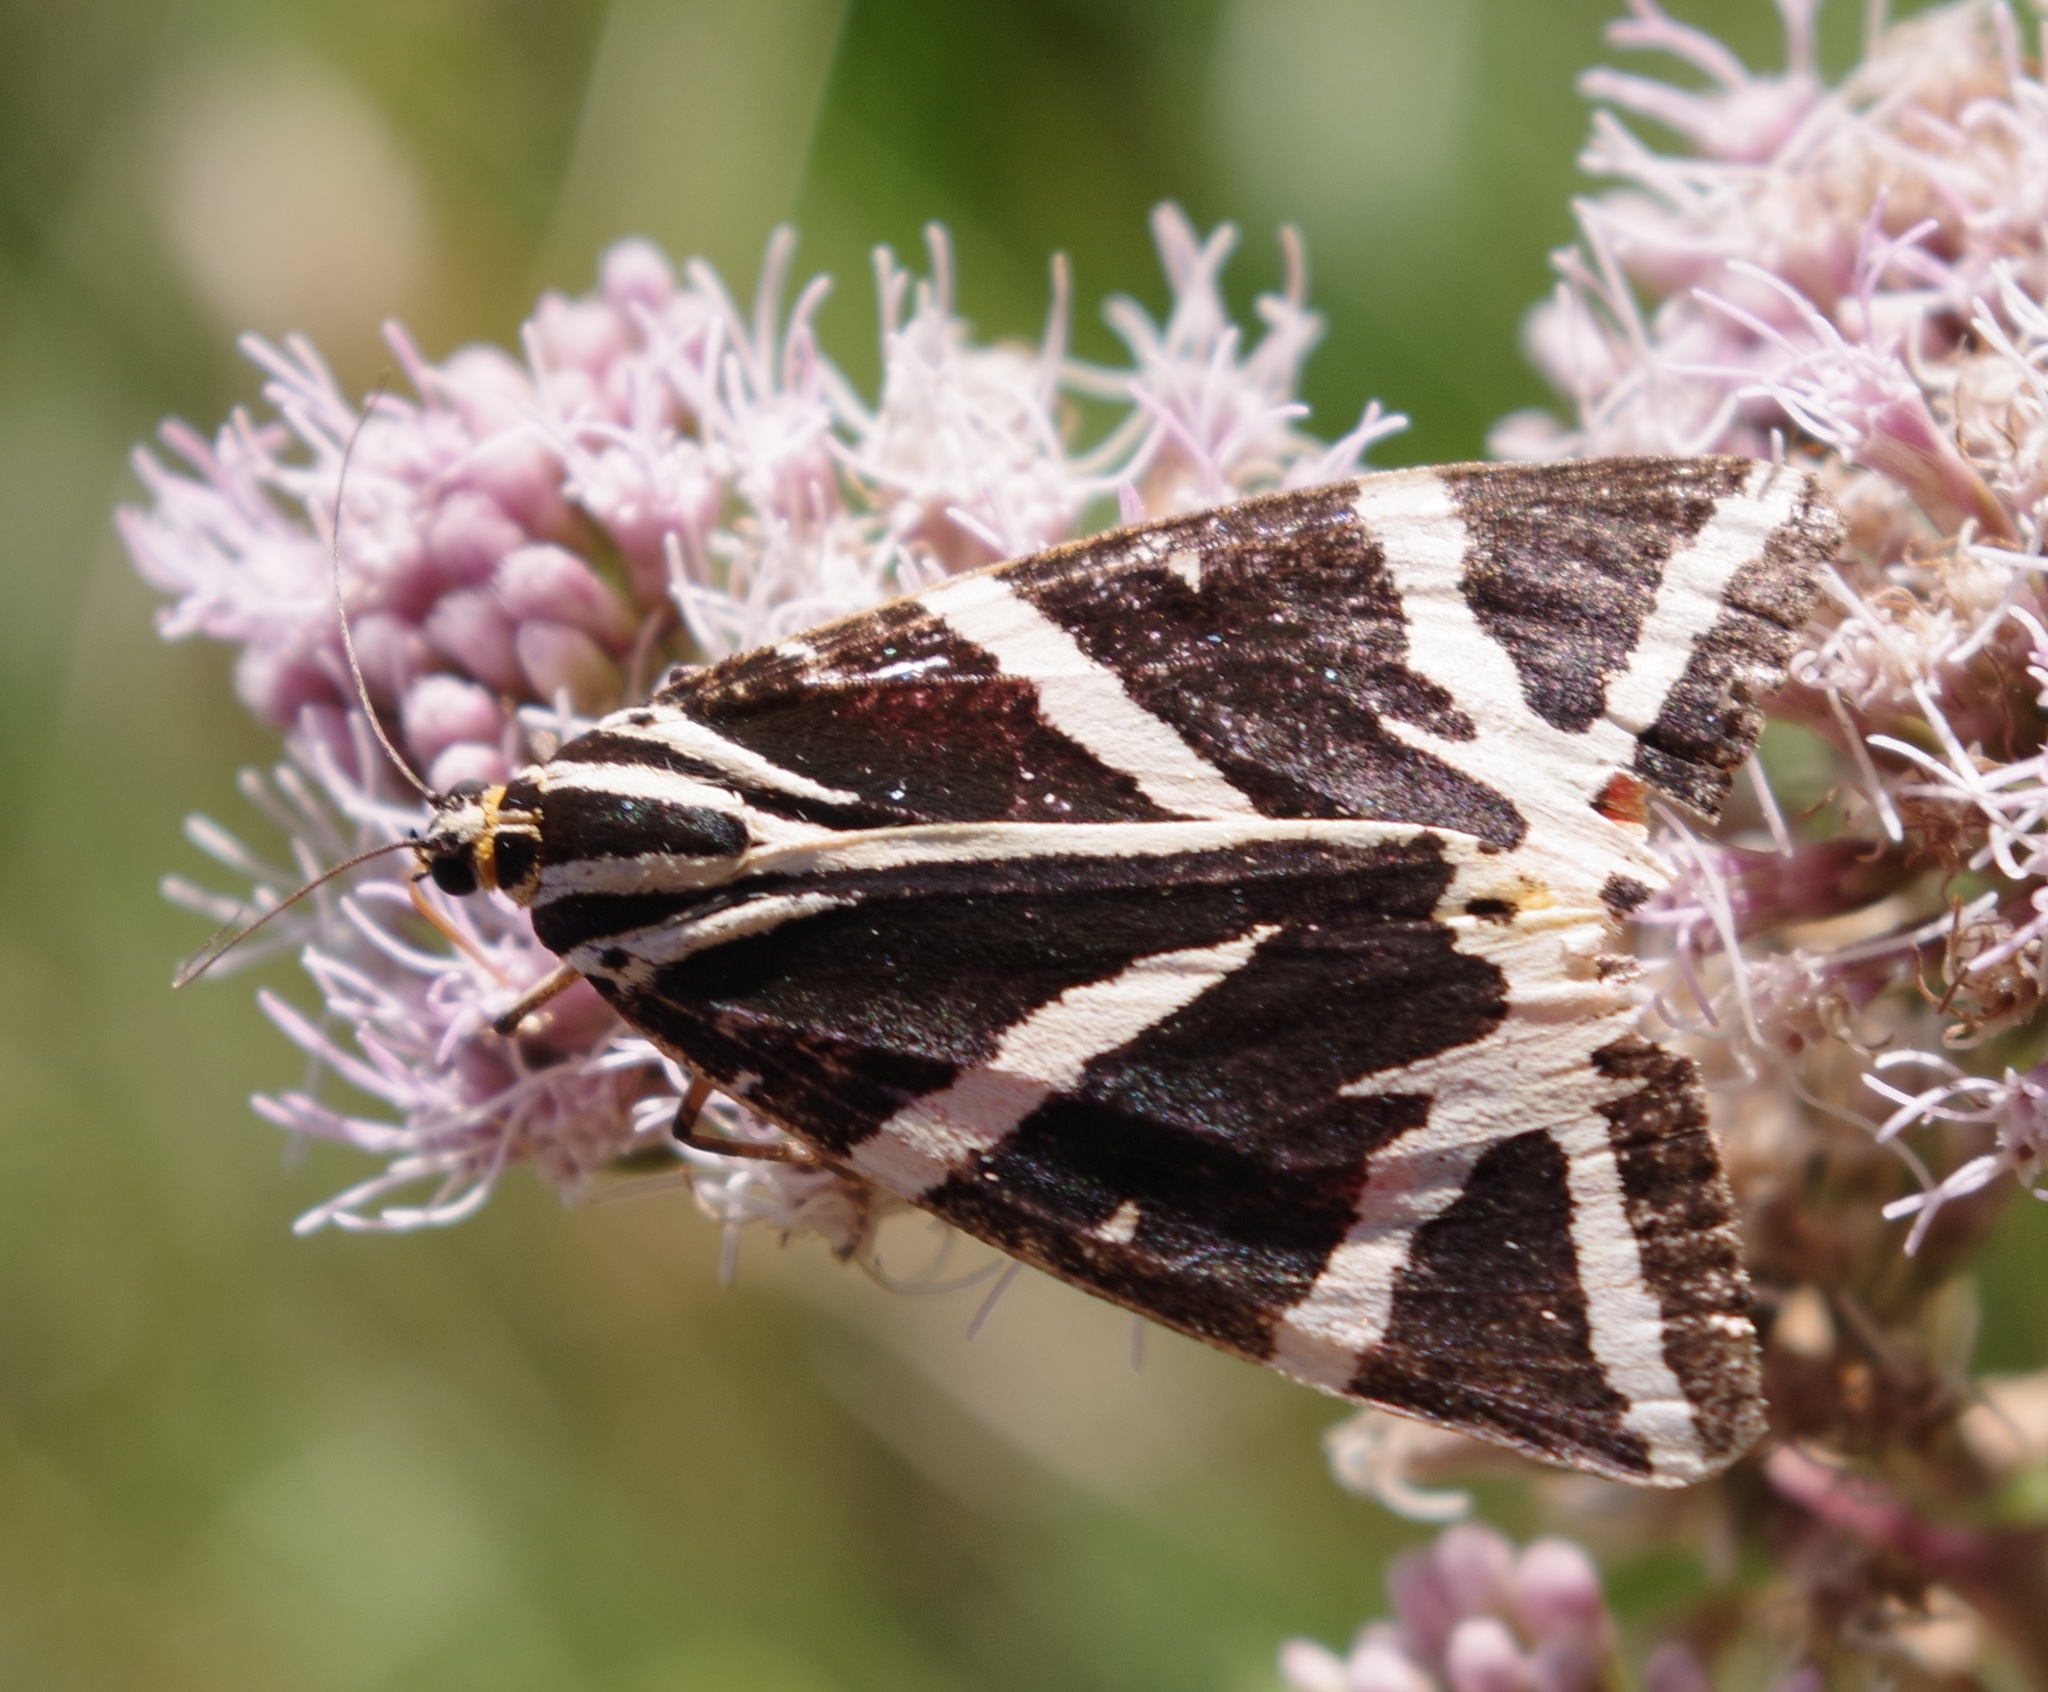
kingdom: Animalia
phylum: Arthropoda
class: Insecta
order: Lepidoptera
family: Erebidae
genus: Euplagia
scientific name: Euplagia quadripunctaria
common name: Jersey tiger
